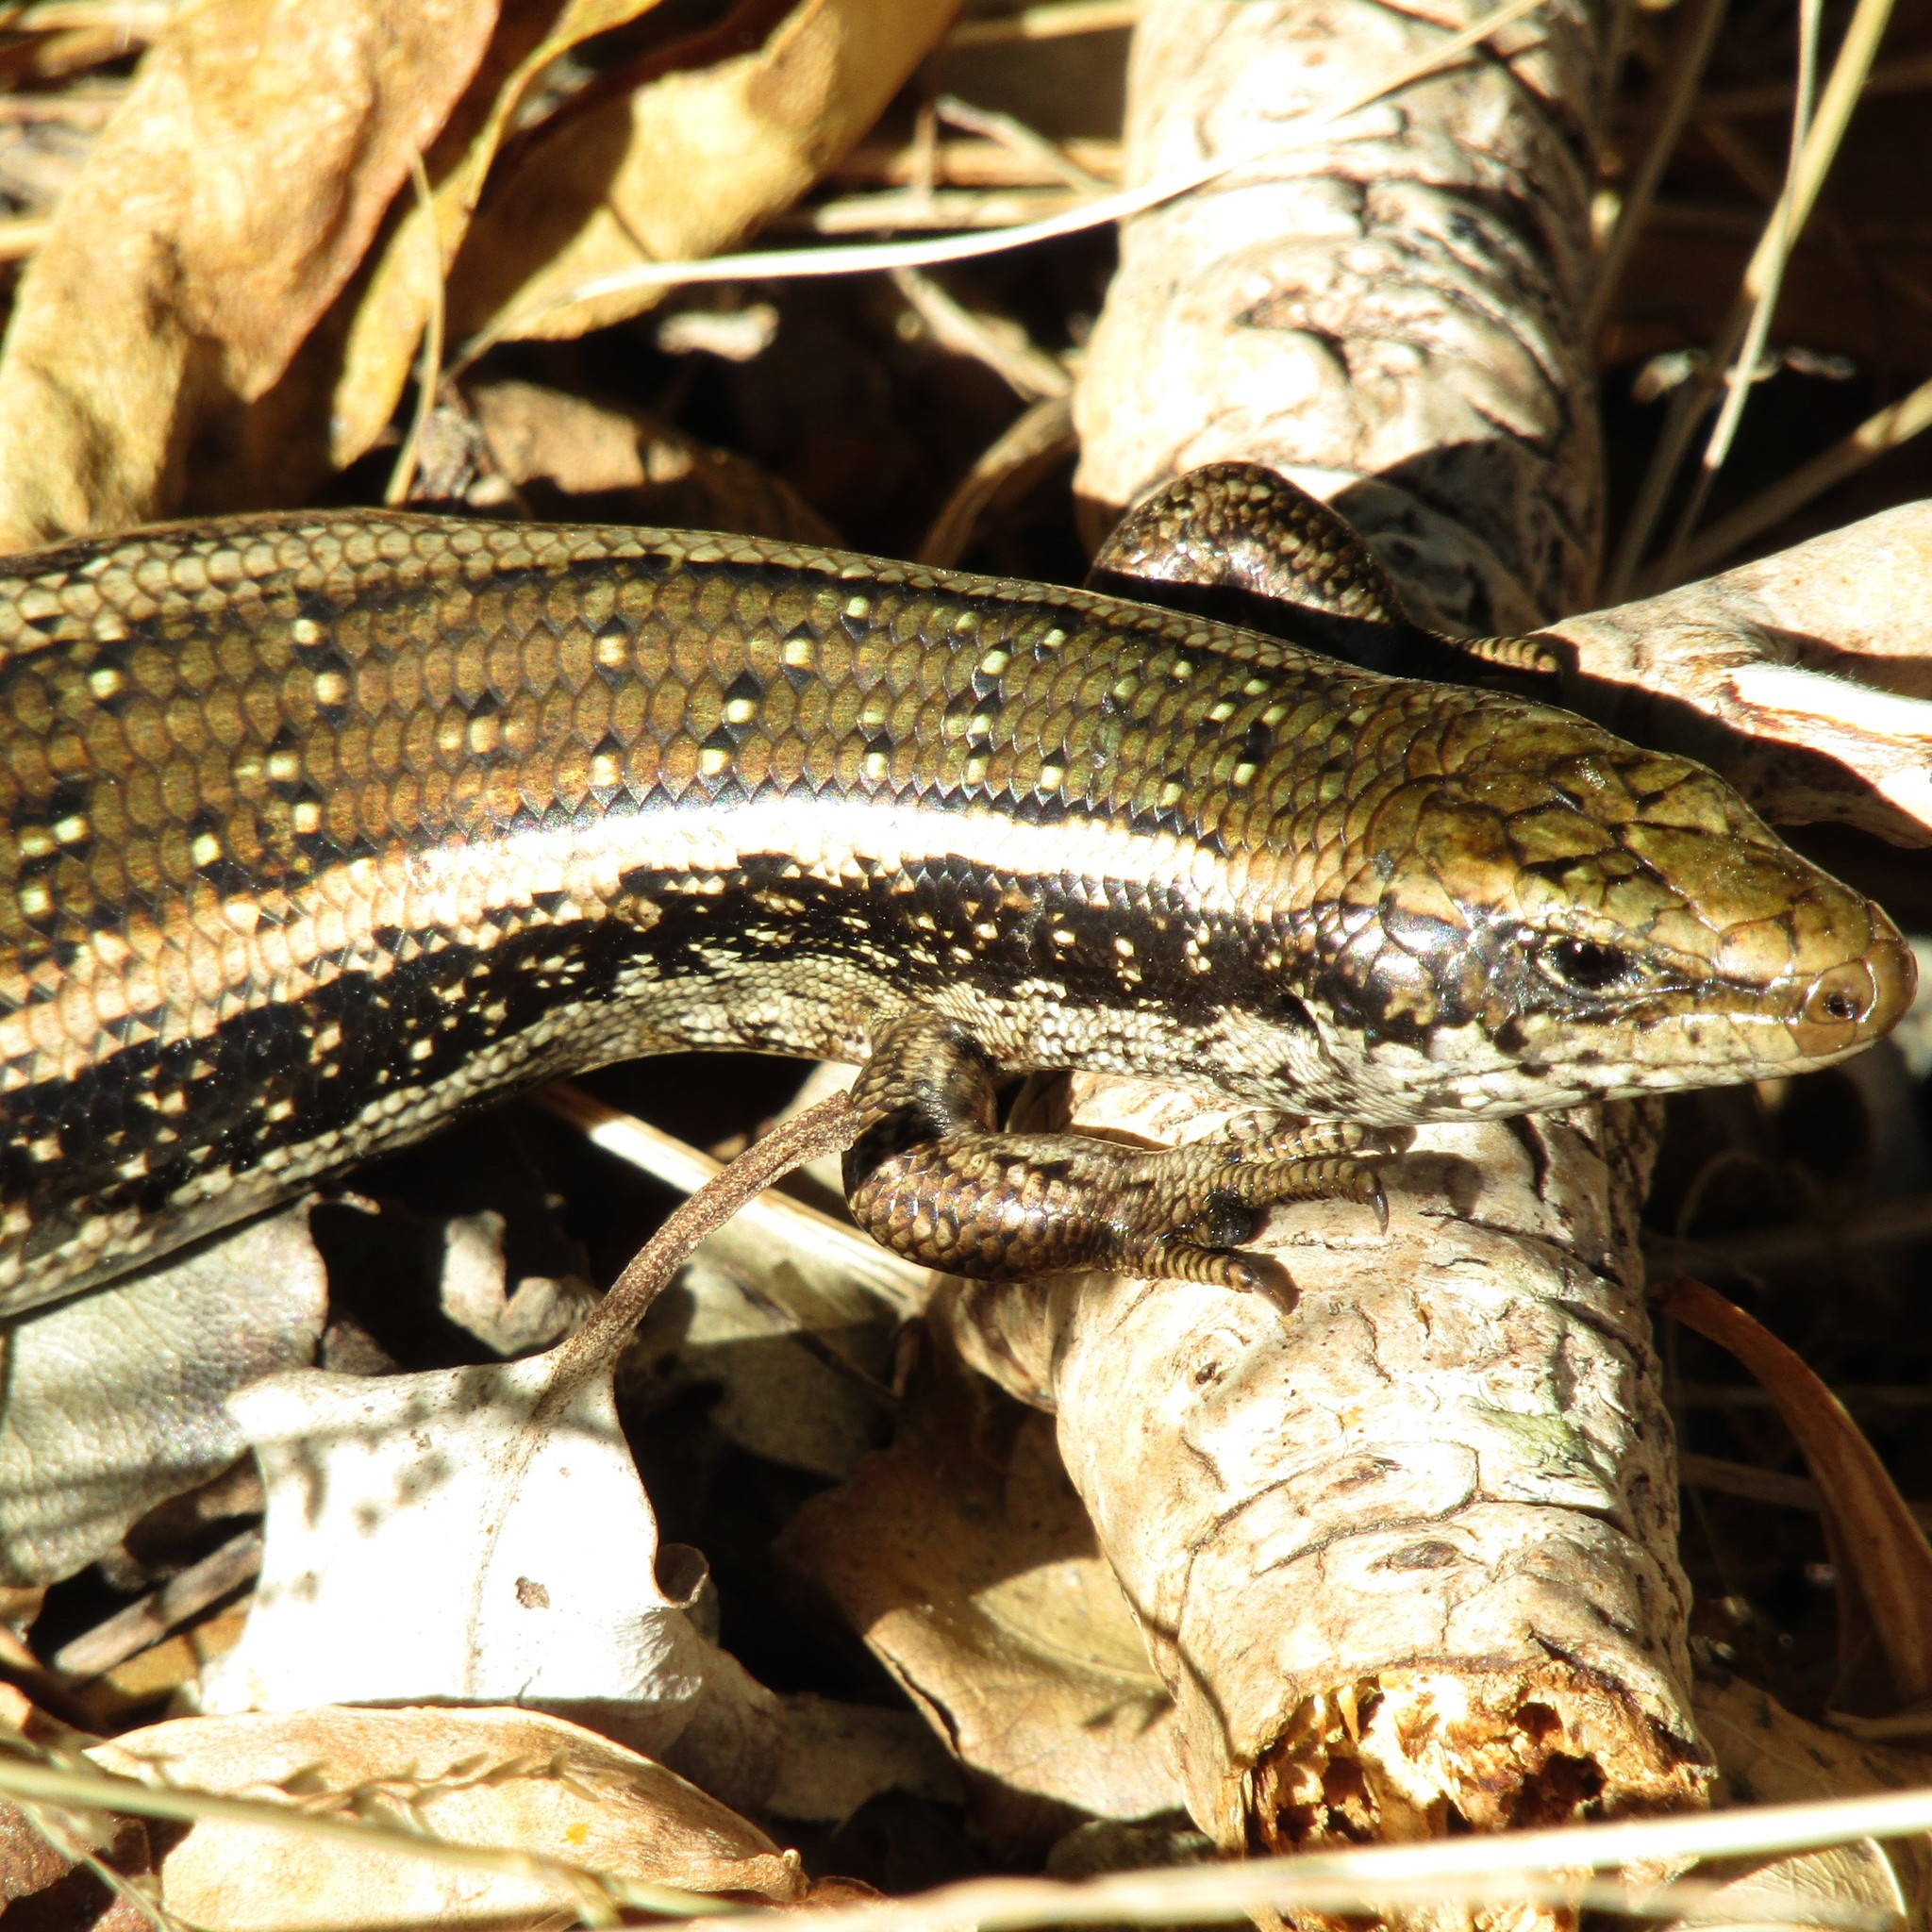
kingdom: Animalia
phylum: Chordata
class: Squamata
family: Scincidae
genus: Oligosoma
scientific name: Oligosoma kokowai
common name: Northern spotted skink
